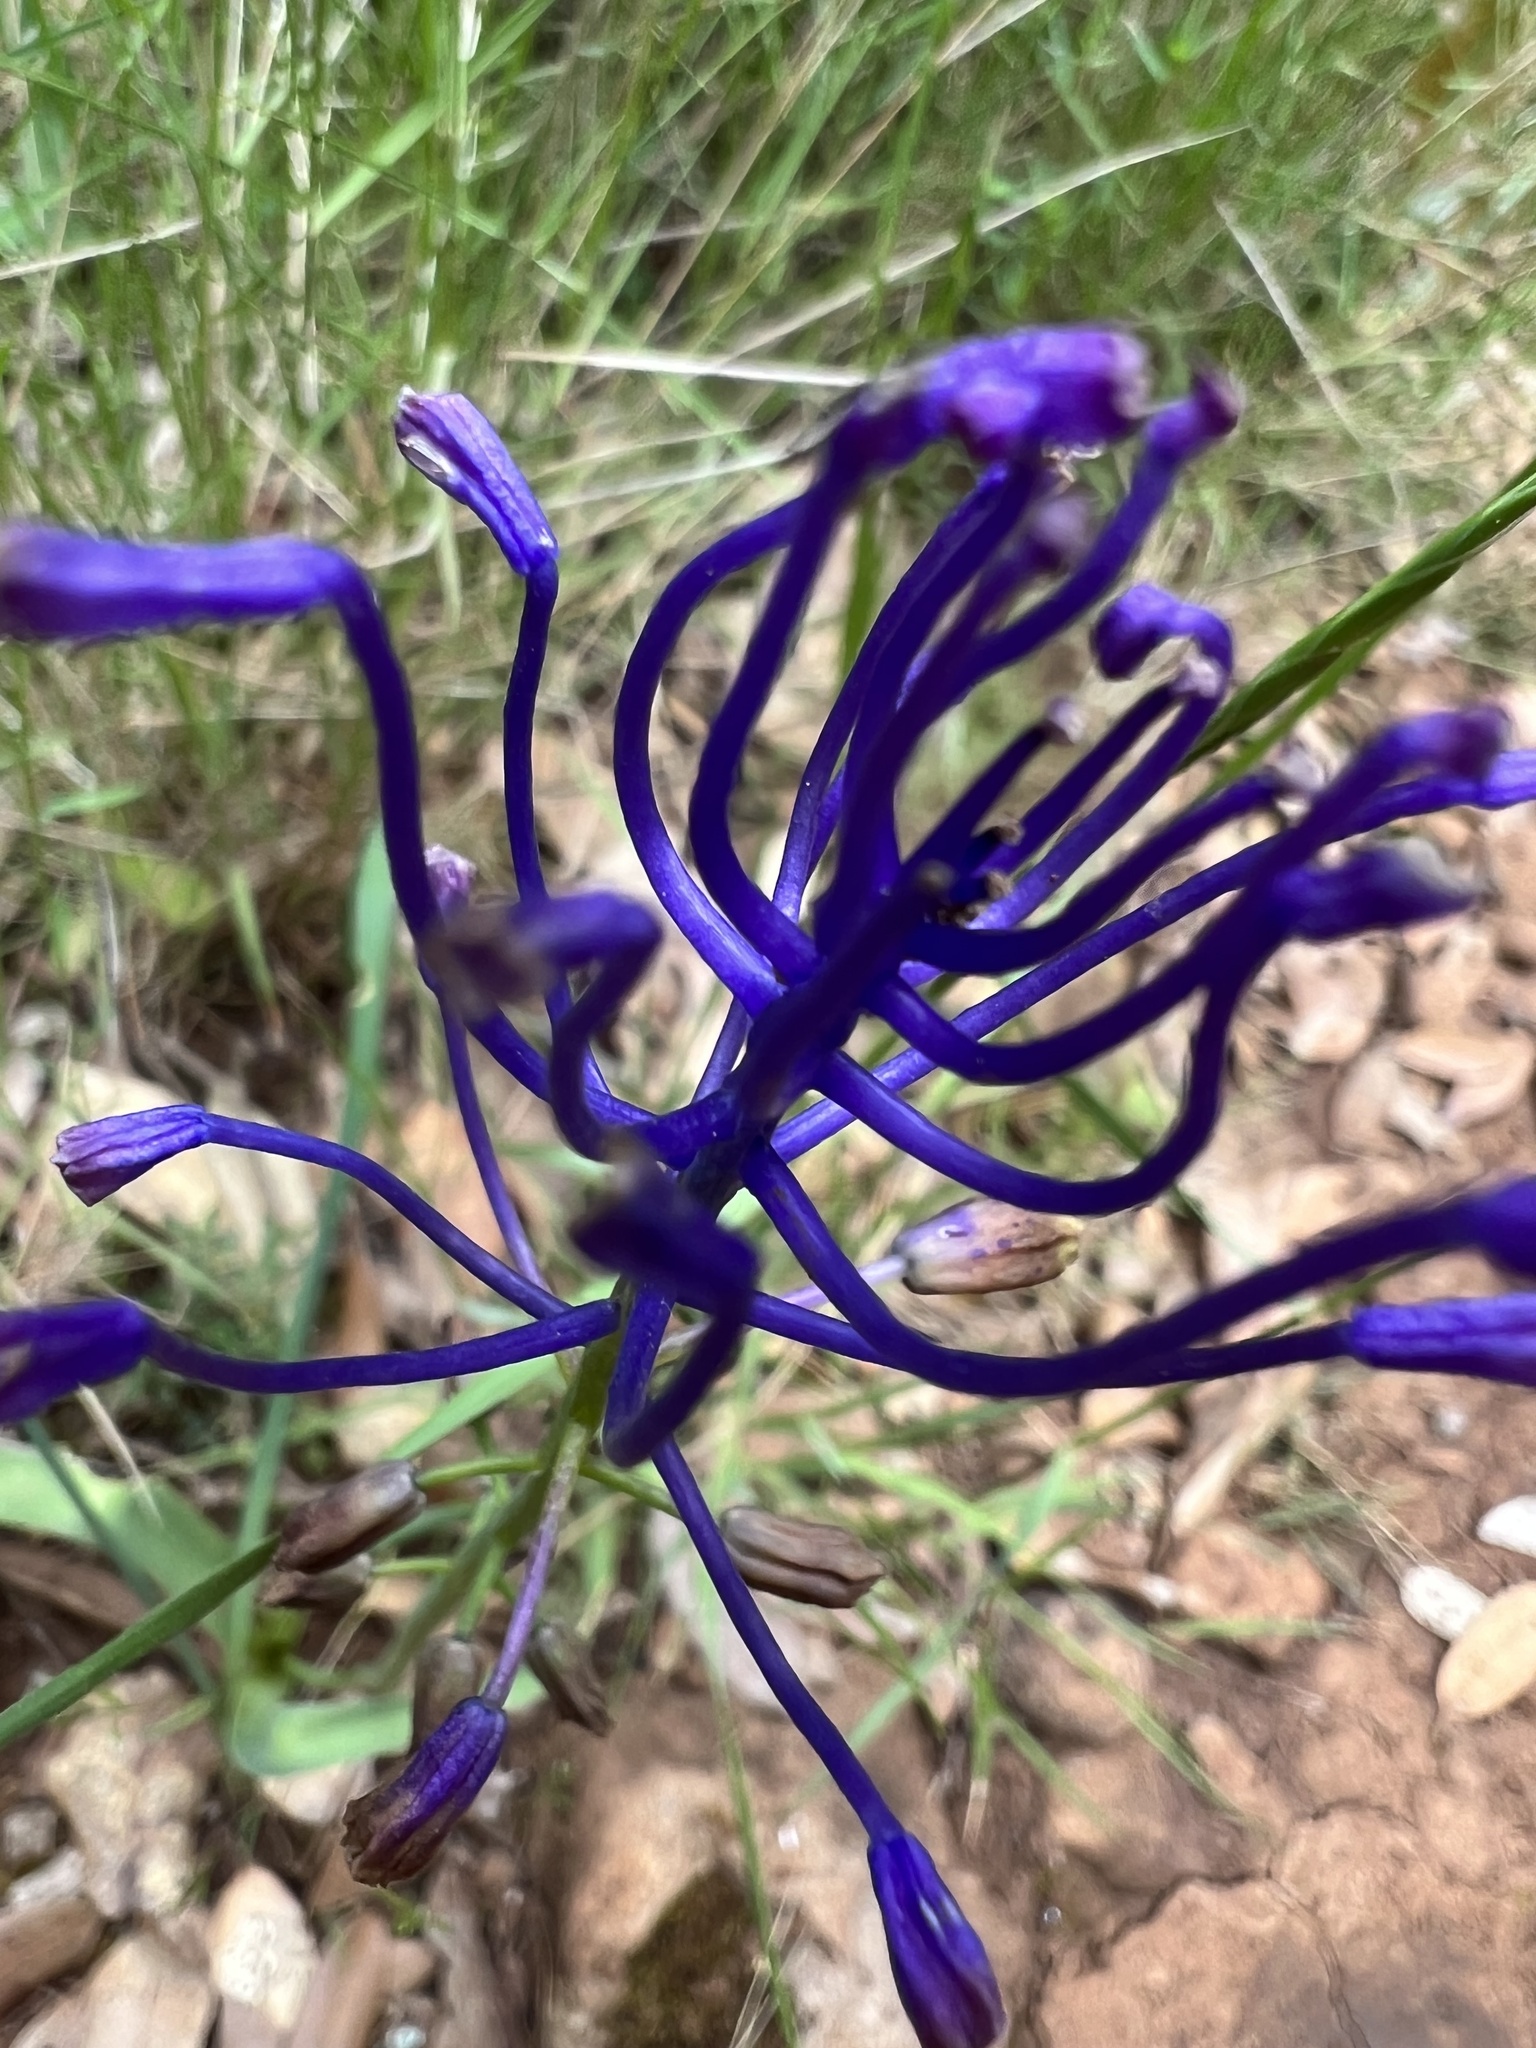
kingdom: Plantae
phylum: Tracheophyta
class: Liliopsida
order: Asparagales
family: Asparagaceae
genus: Muscari
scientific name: Muscari comosum
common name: Tassel hyacinth
